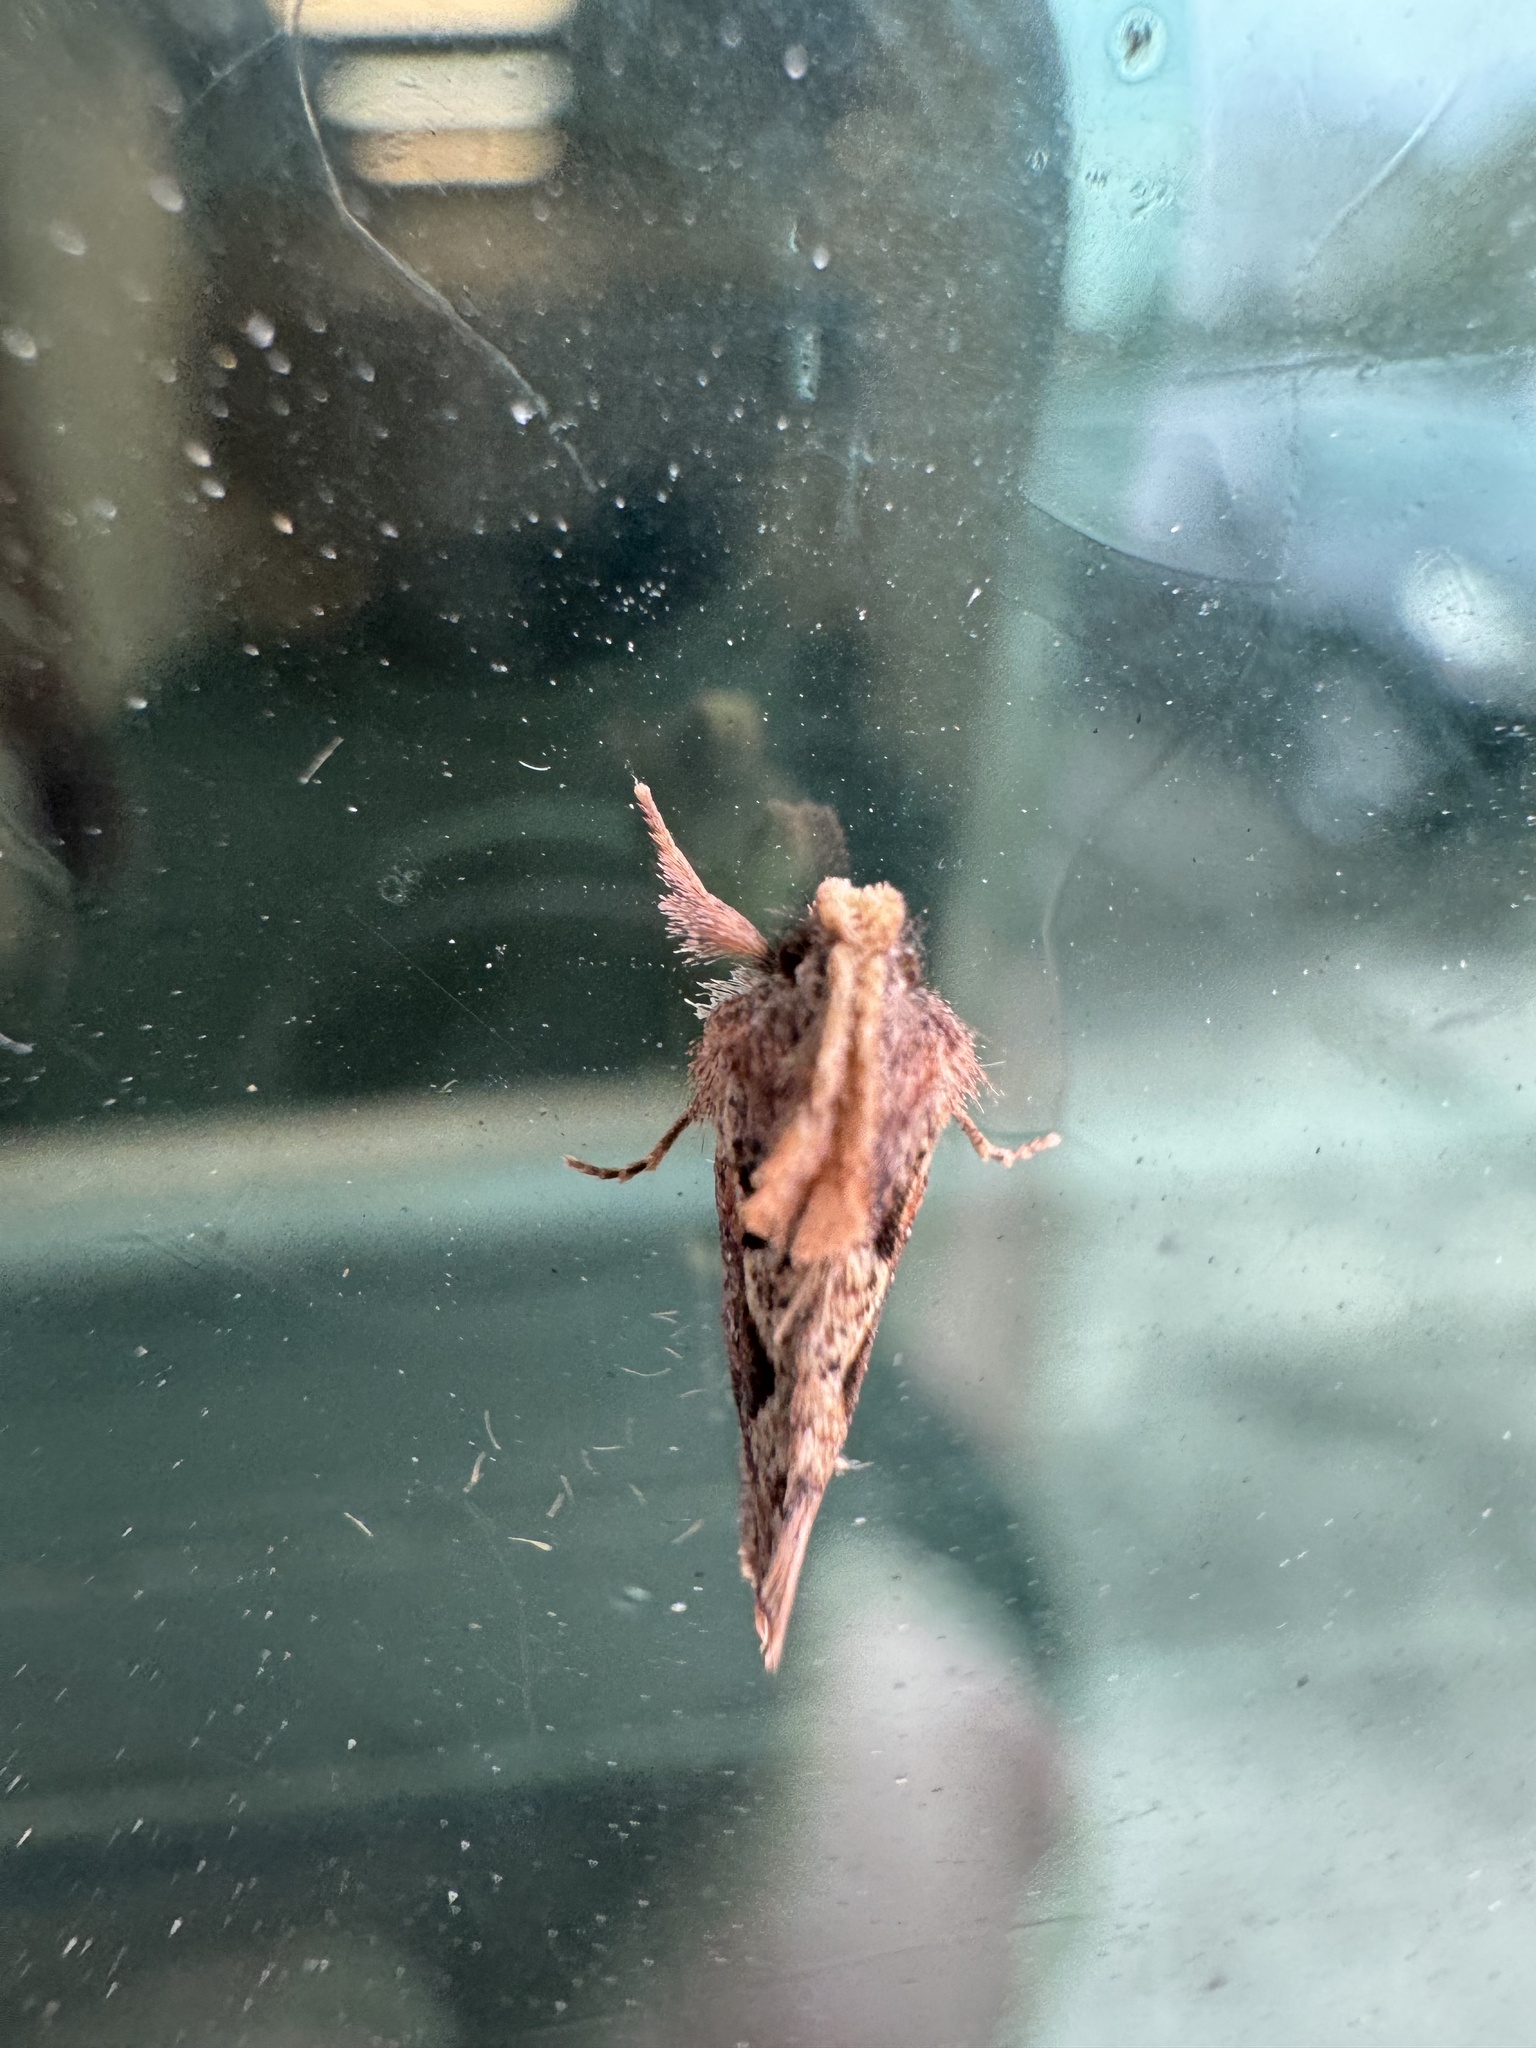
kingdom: Animalia
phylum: Arthropoda
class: Insecta
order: Lepidoptera
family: Tineidae
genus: Acrolophus
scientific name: Acrolophus walsinghami
